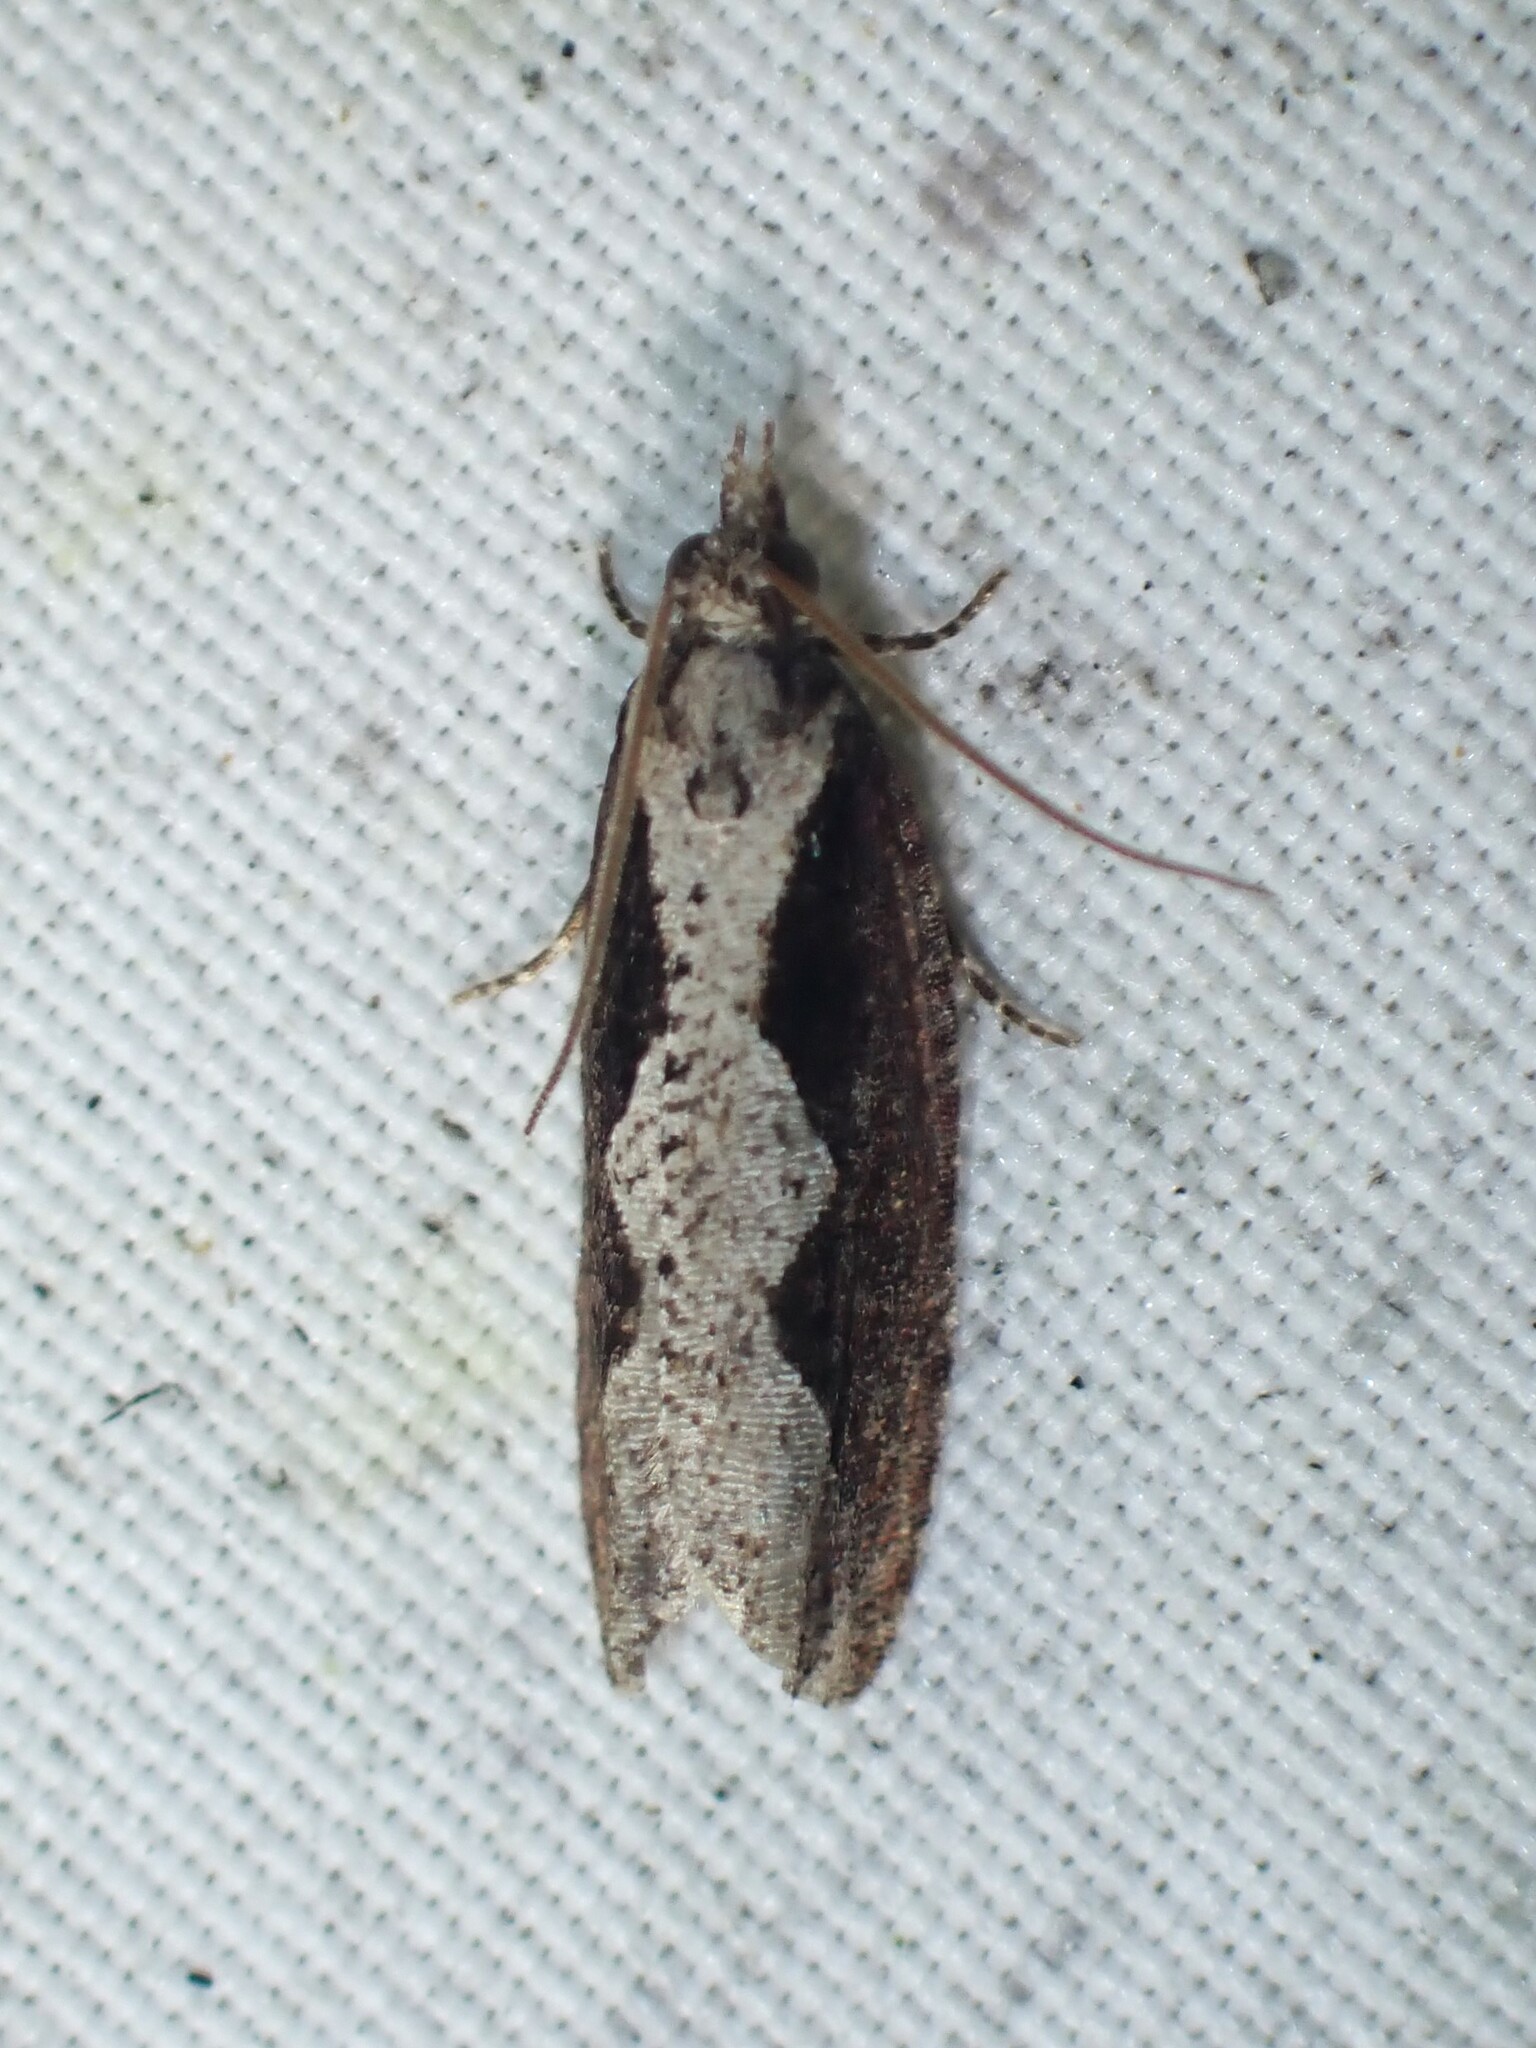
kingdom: Animalia
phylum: Arthropoda
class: Insecta
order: Lepidoptera
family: Tortricidae
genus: Epinotia
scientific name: Epinotia lindana
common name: Diamondback epinotia moth
